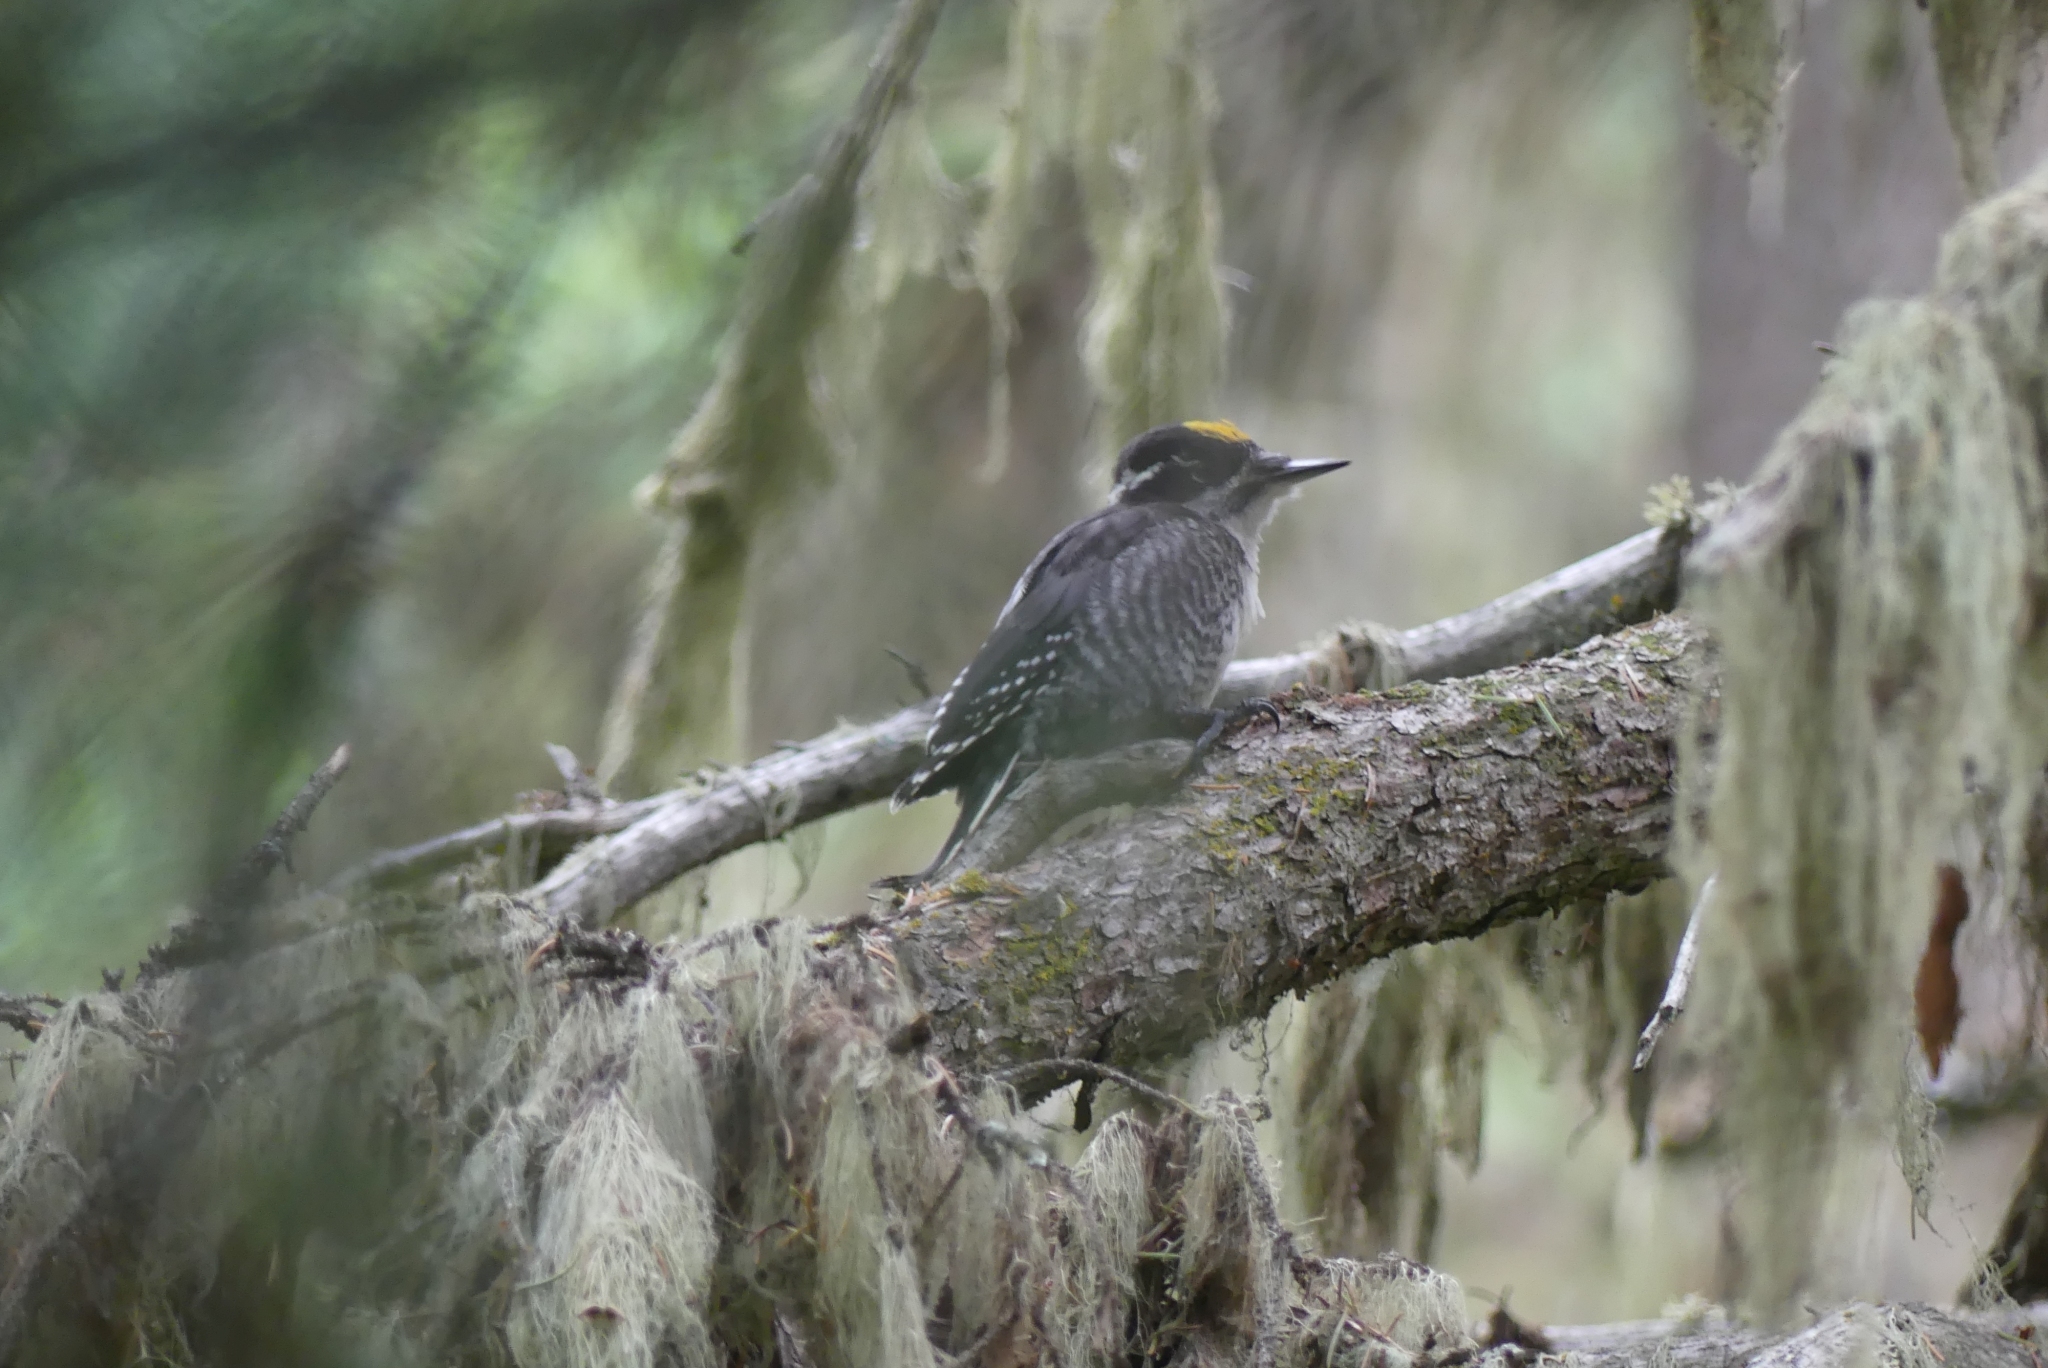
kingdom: Animalia
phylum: Chordata
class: Aves
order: Piciformes
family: Picidae
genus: Picoides
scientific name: Picoides dorsalis
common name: American three-toed woodpecker
